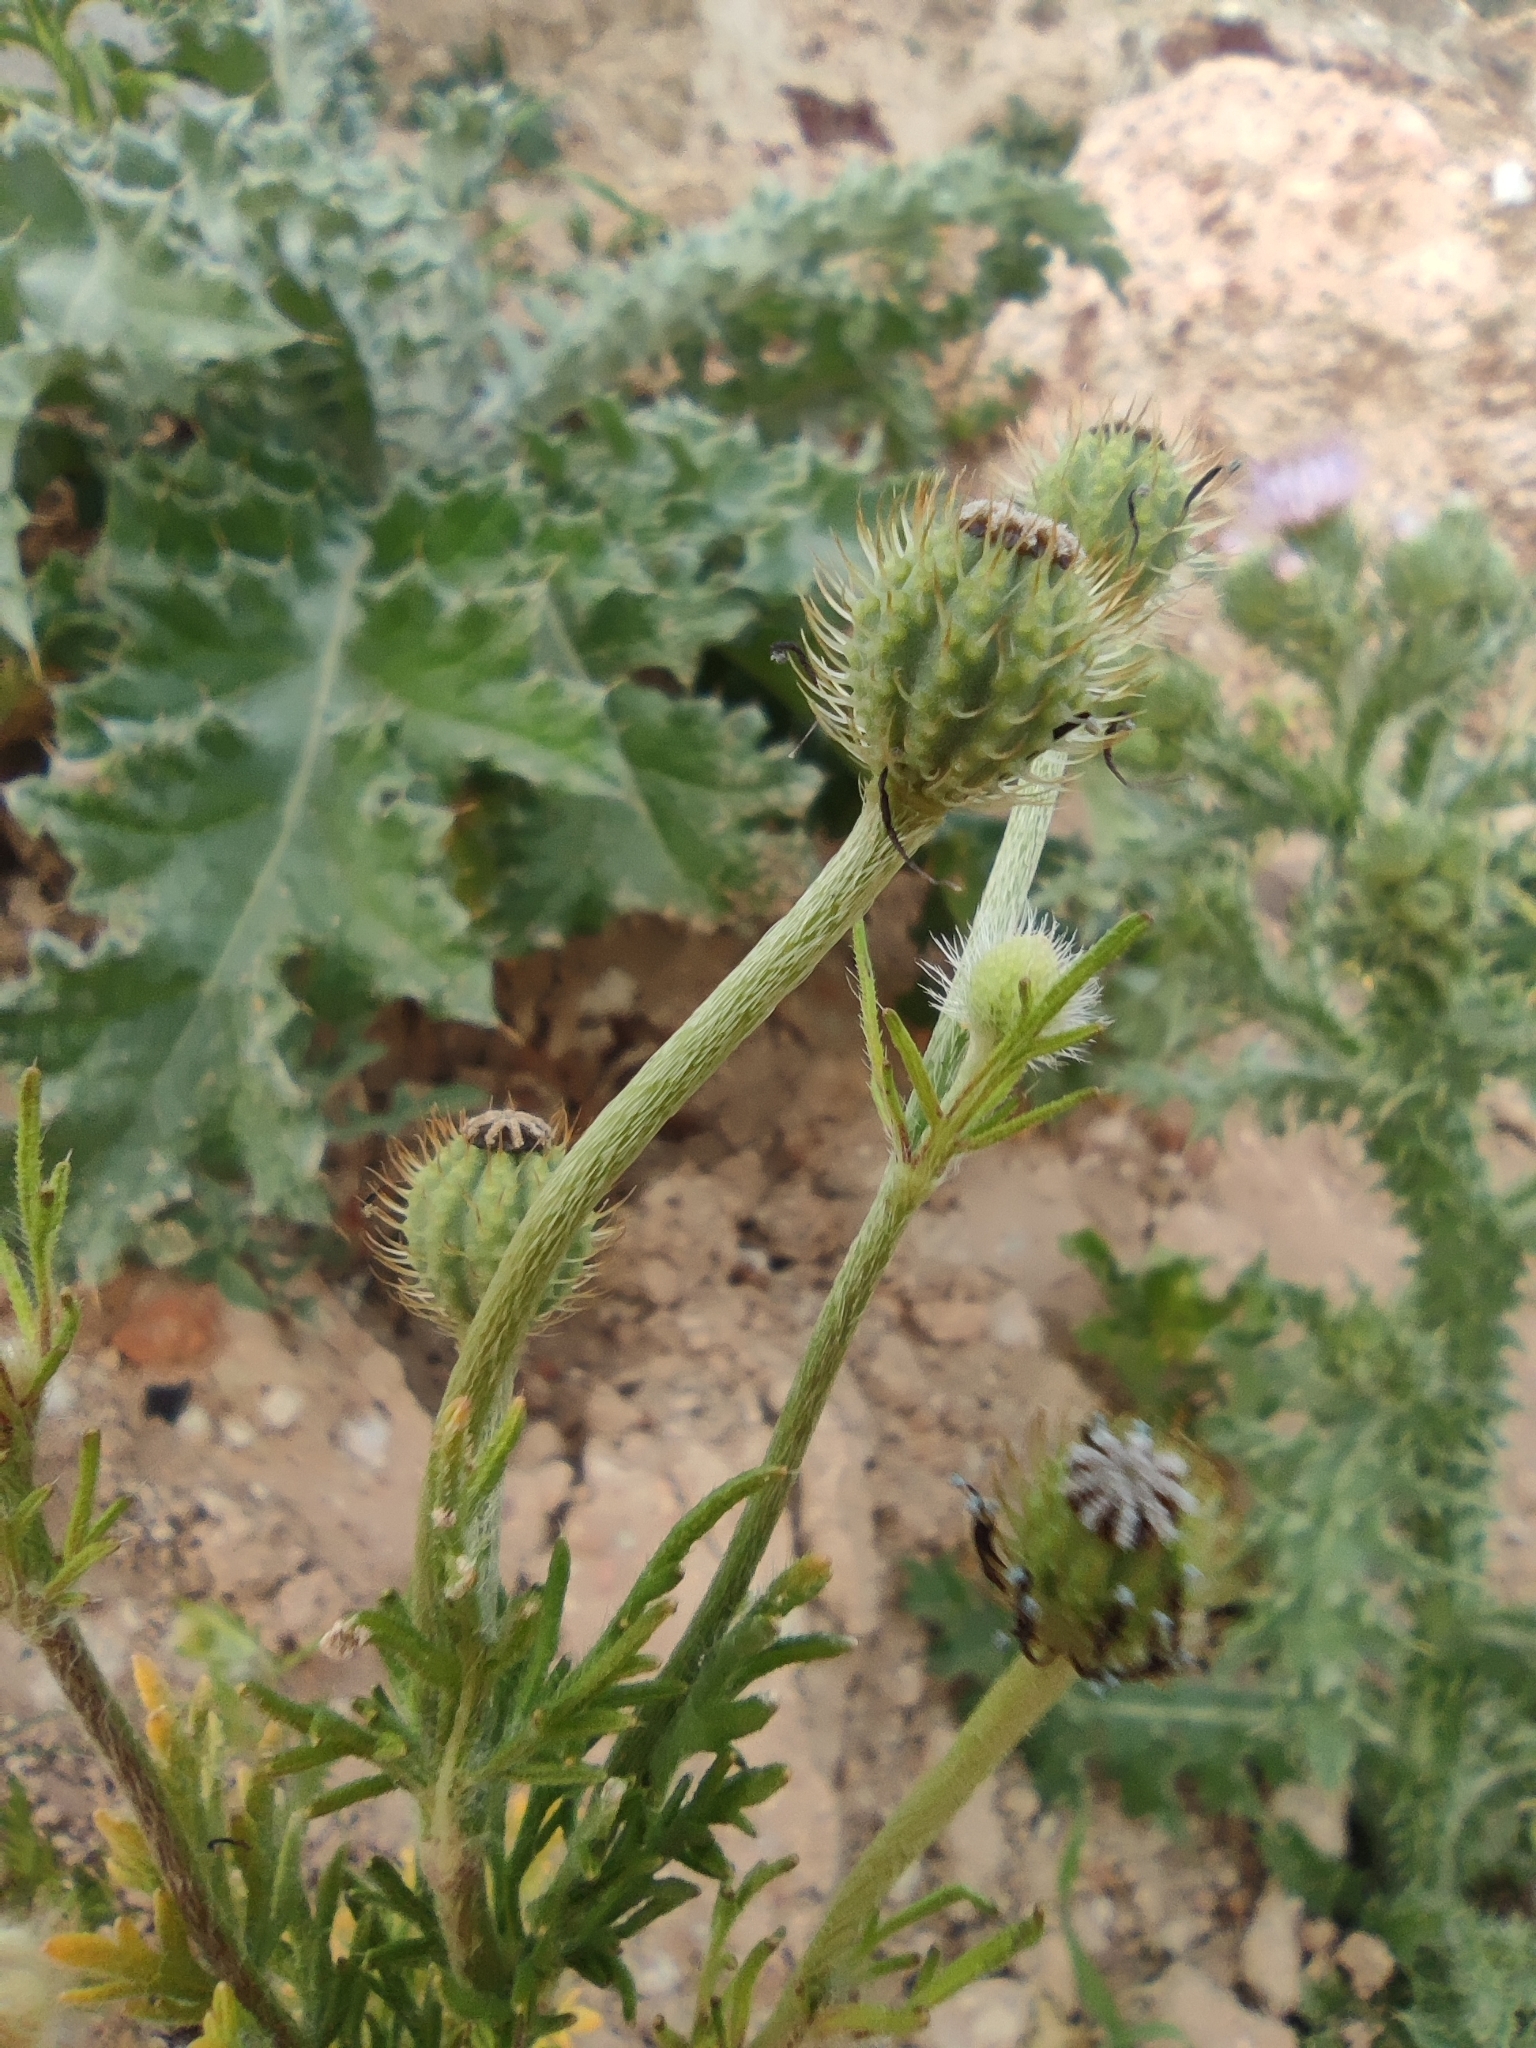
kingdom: Plantae
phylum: Tracheophyta
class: Magnoliopsida
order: Ranunculales
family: Papaveraceae
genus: Roemeria
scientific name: Roemeria hispida
